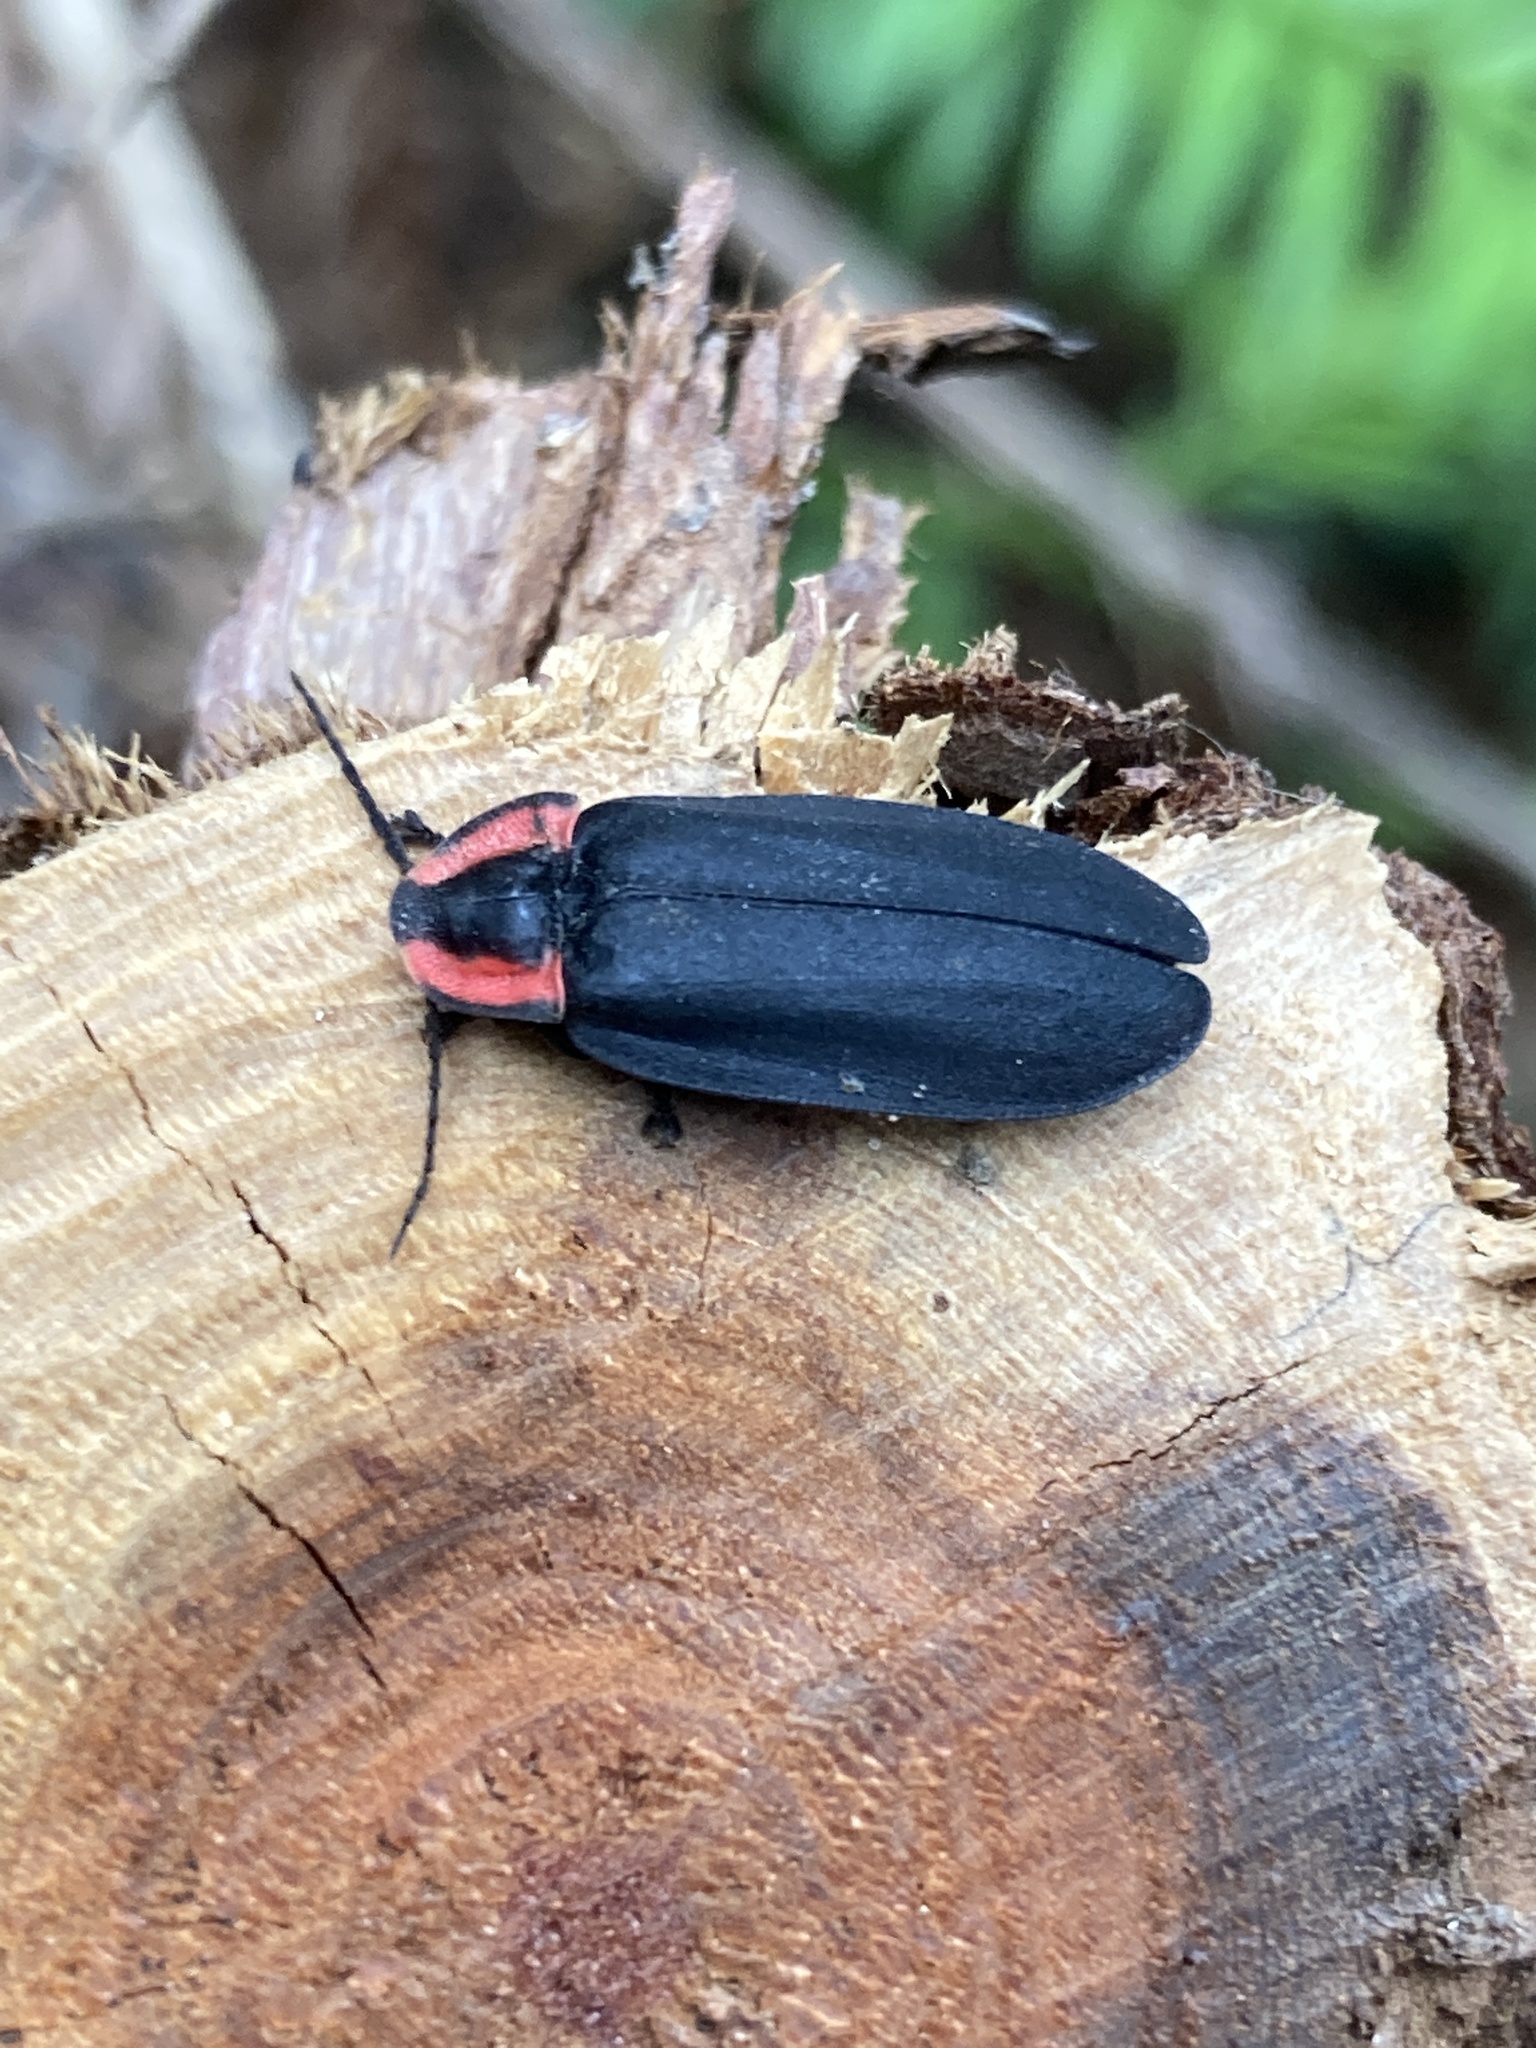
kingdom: Animalia
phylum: Arthropoda
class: Insecta
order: Coleoptera
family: Lampyridae
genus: Photinus
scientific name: Photinus californica
